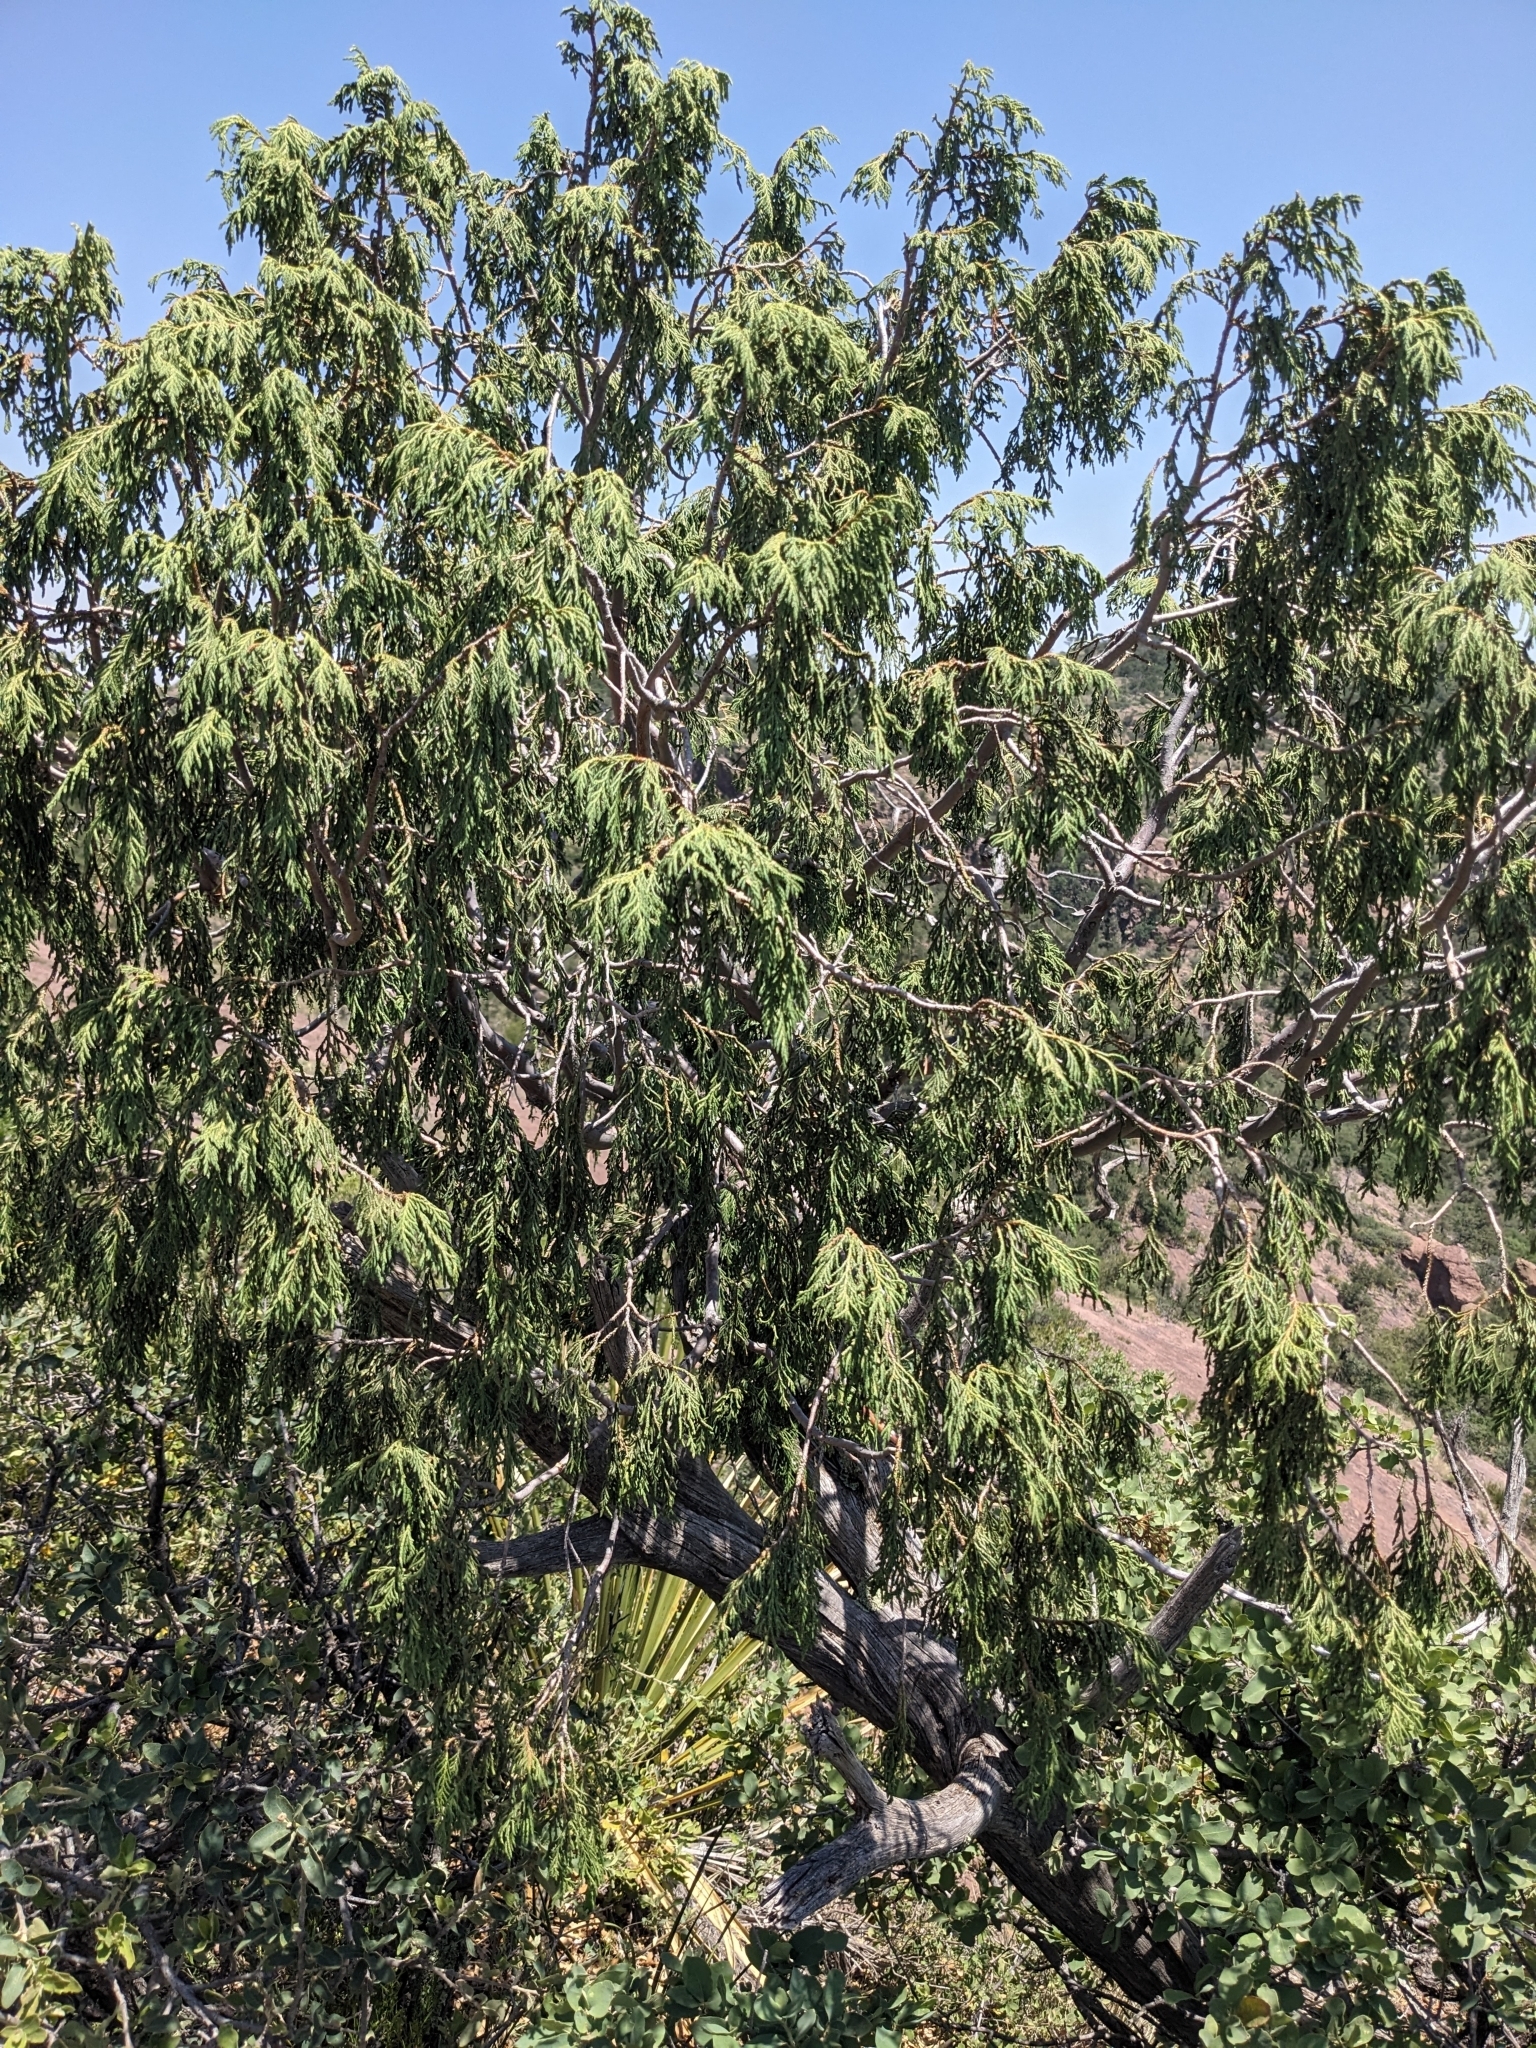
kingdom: Plantae
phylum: Tracheophyta
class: Pinopsida
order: Pinales
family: Cupressaceae
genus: Juniperus
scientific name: Juniperus flaccida
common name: Drooping juniper
